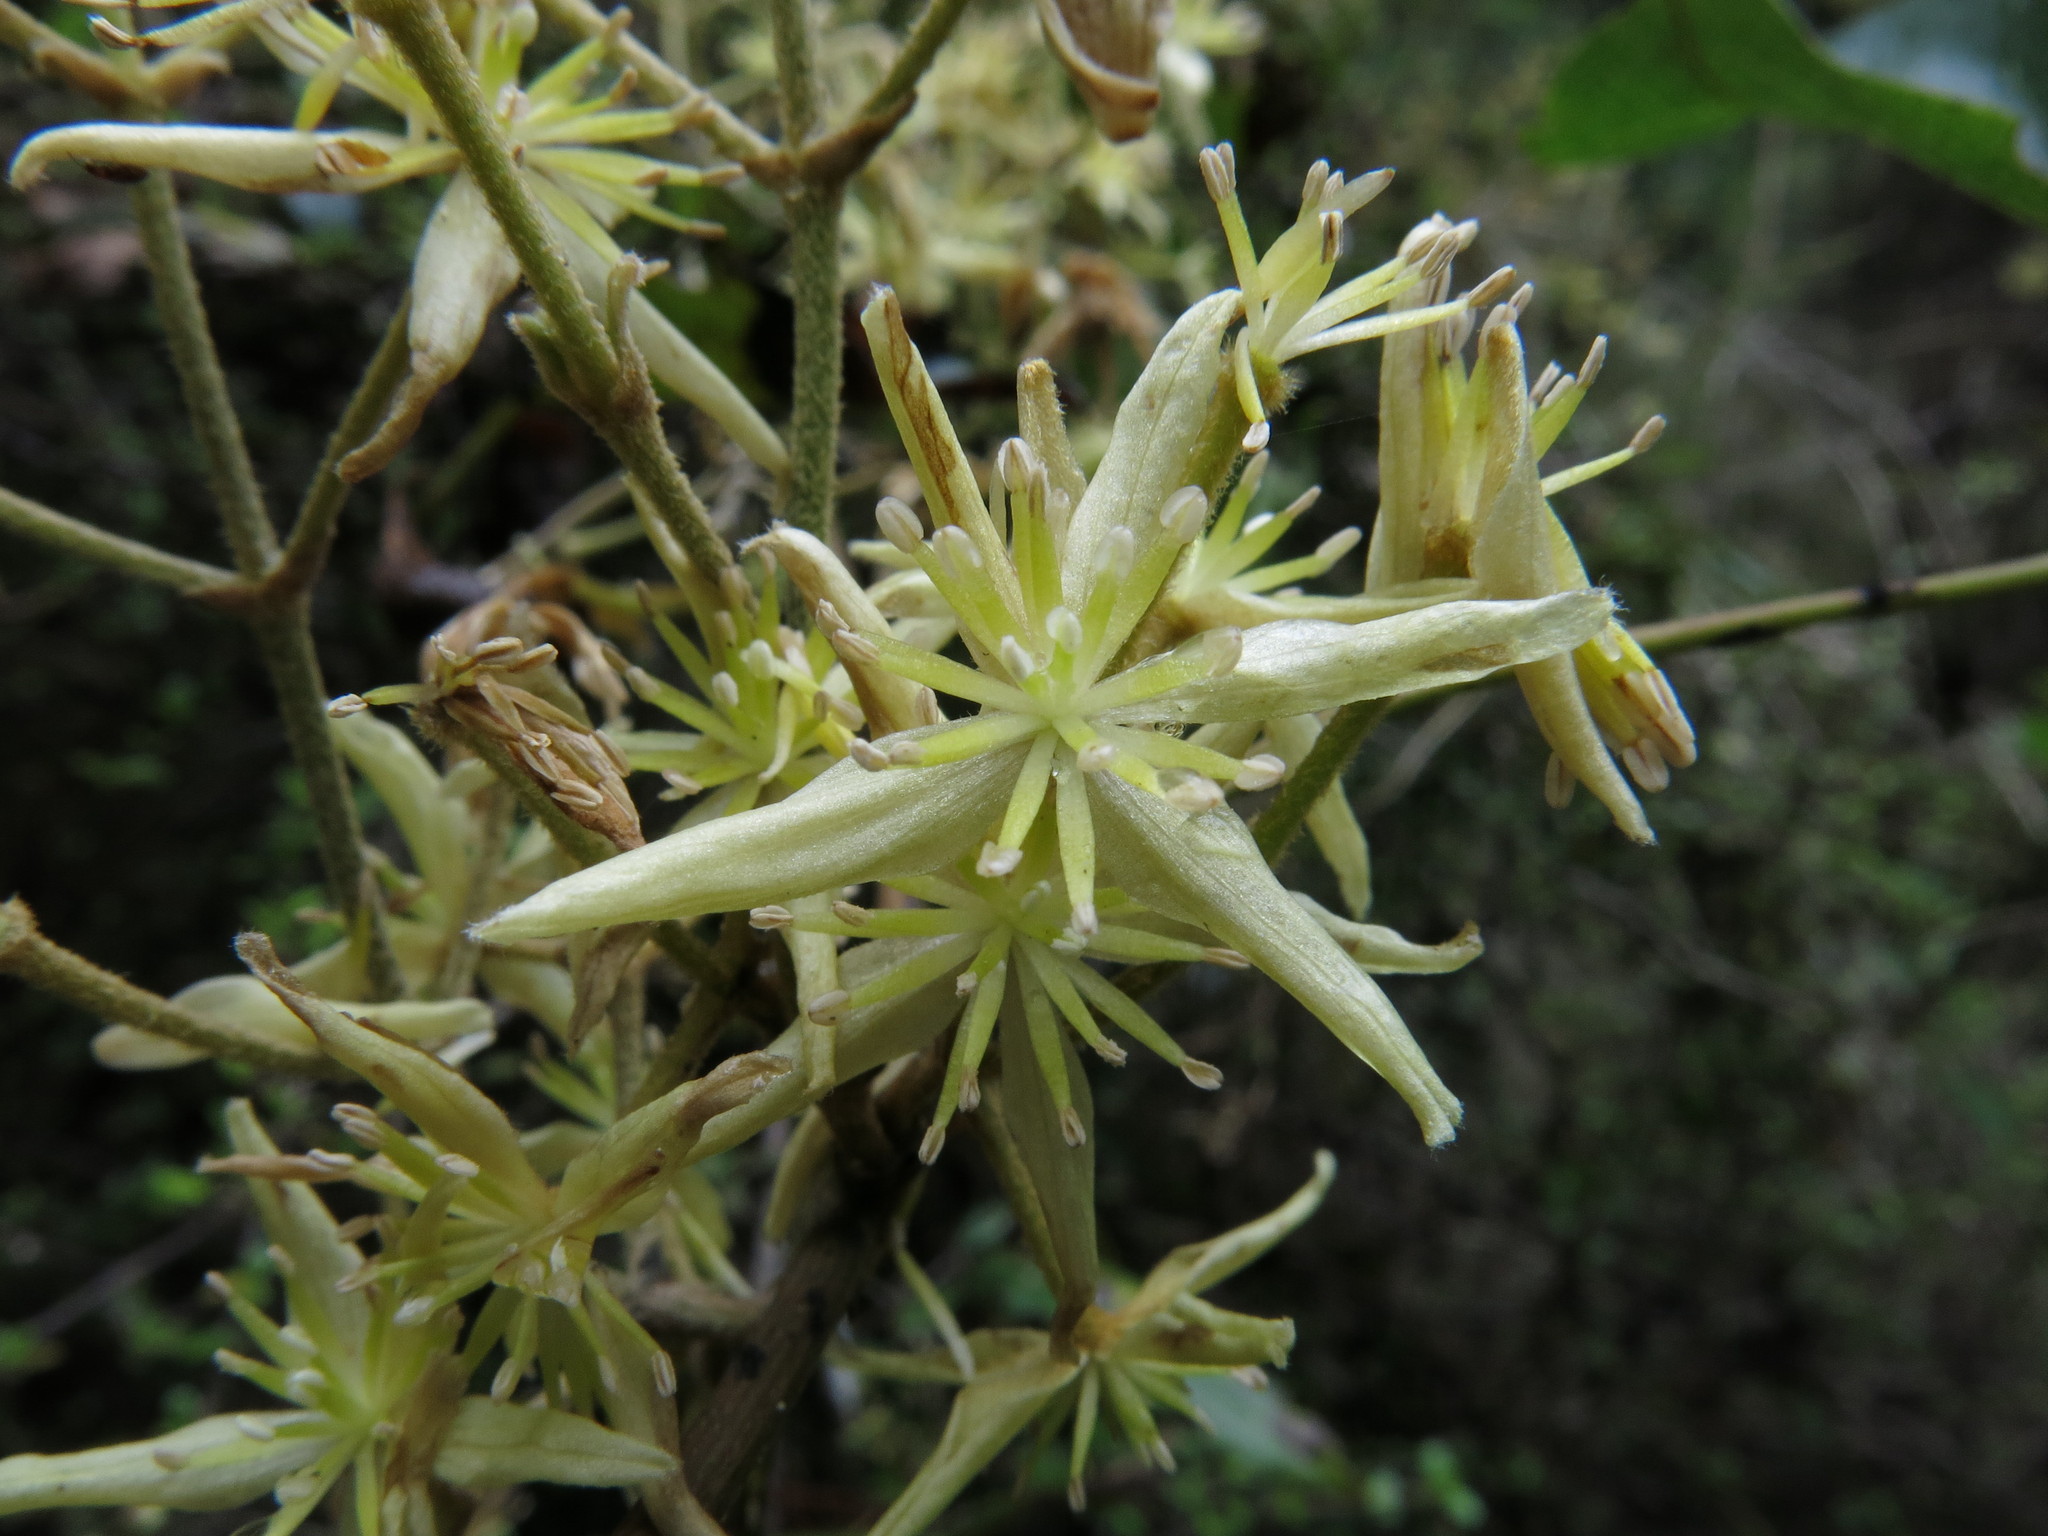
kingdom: Plantae
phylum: Tracheophyta
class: Magnoliopsida
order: Ranunculales
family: Ranunculaceae
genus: Clematis
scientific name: Clematis foetida
